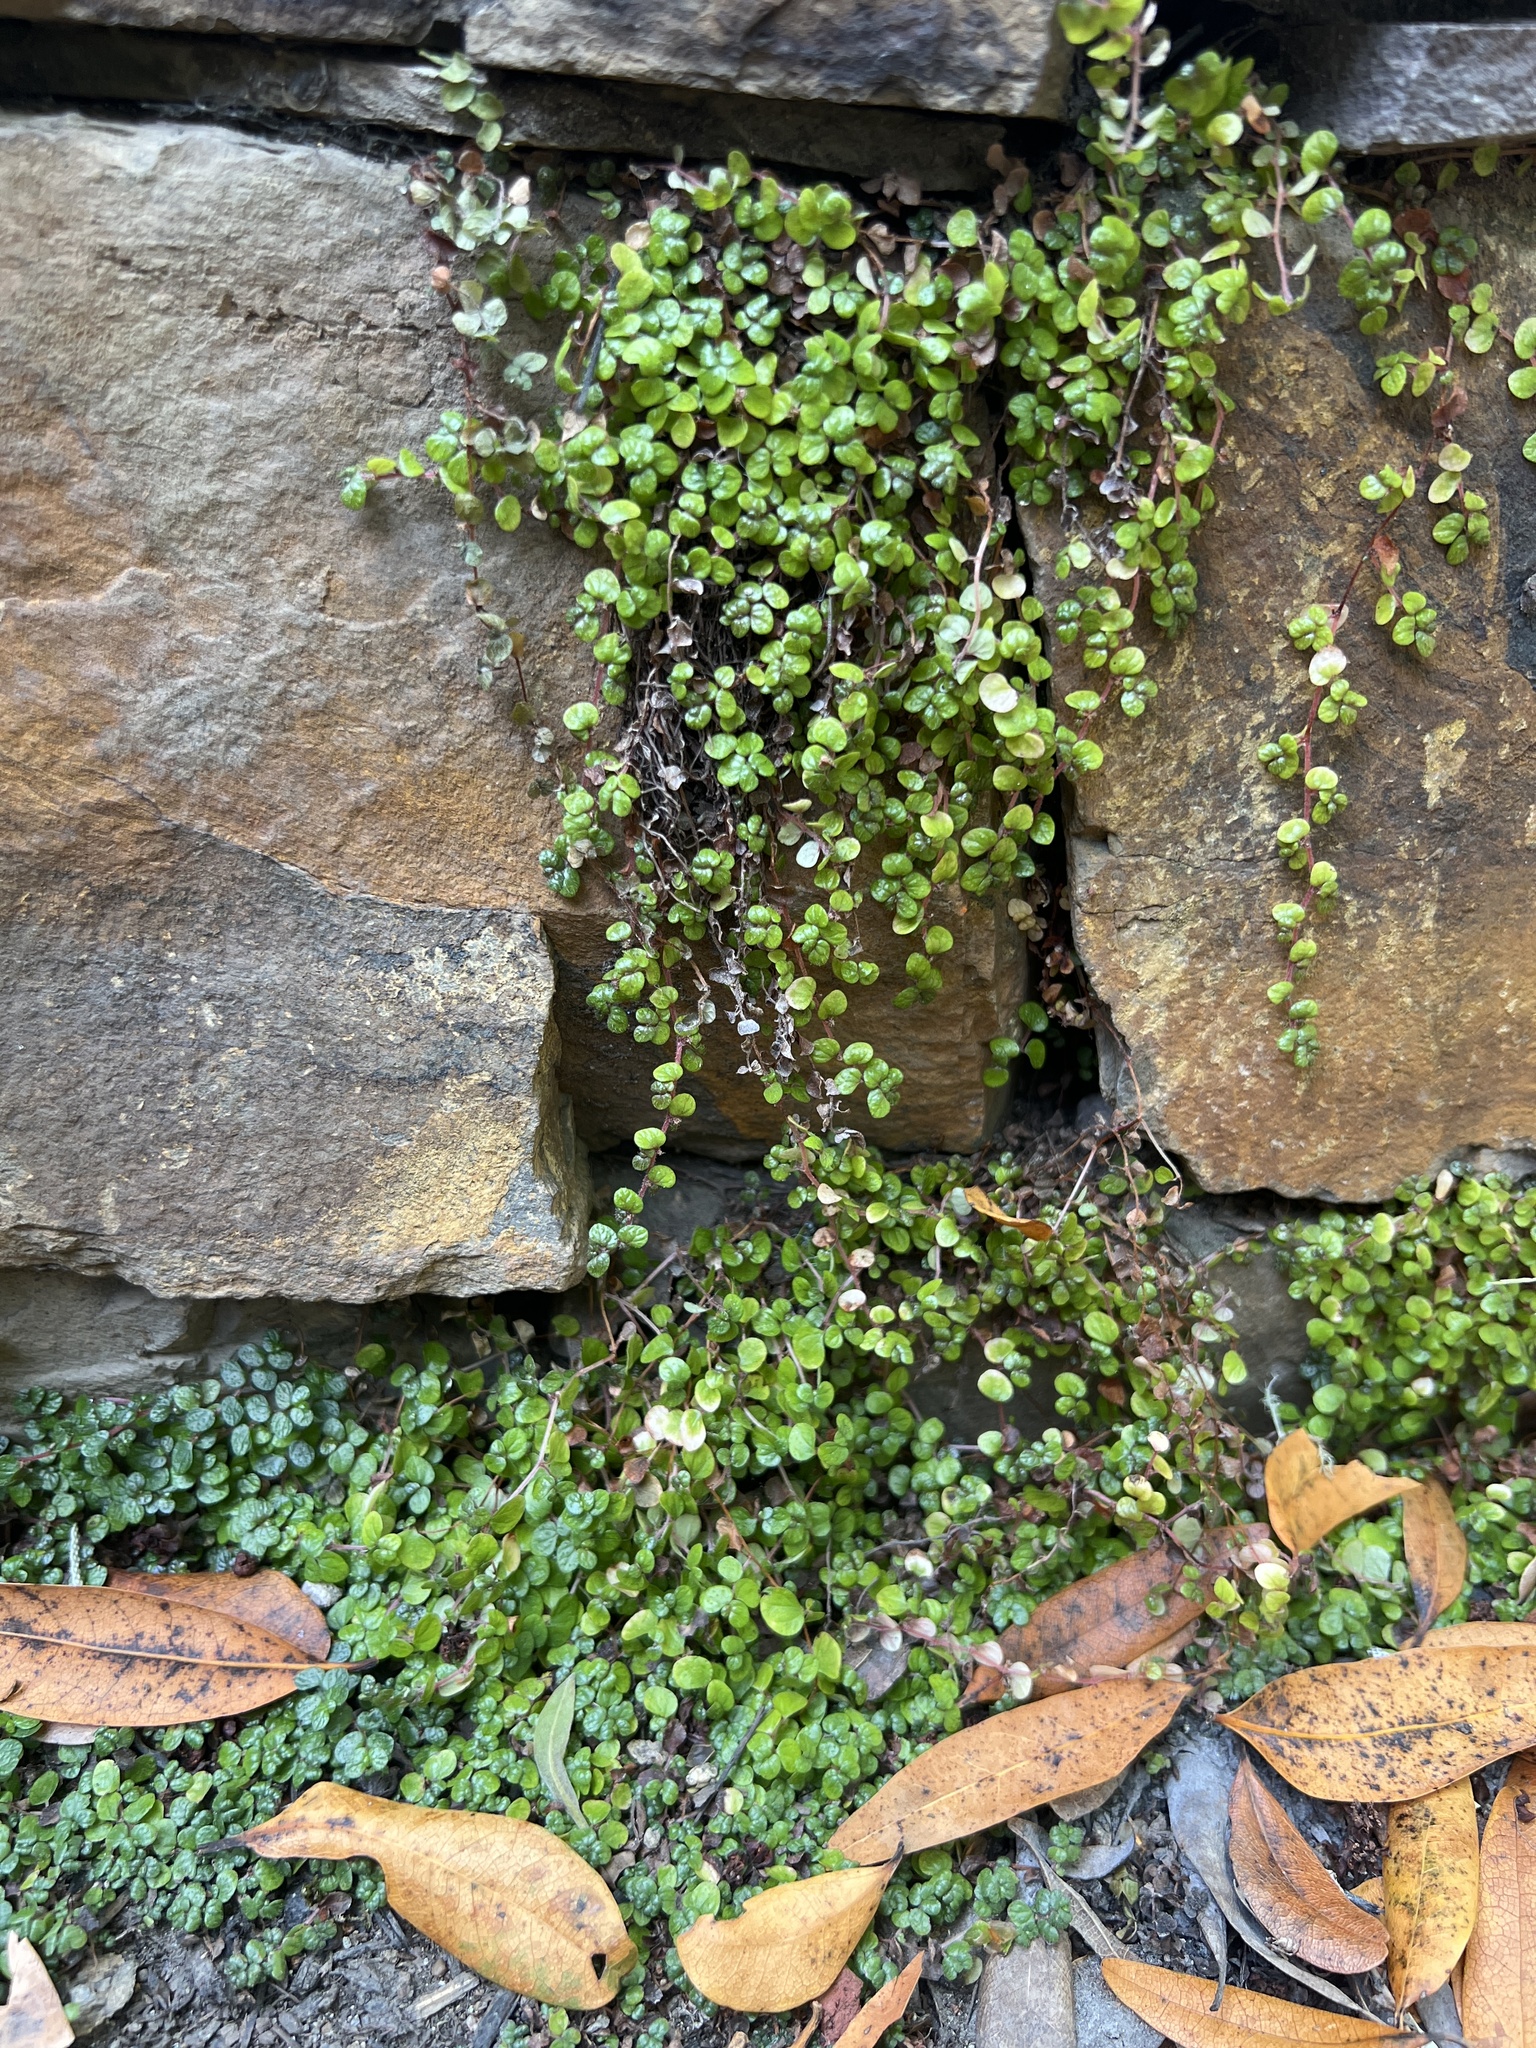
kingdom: Plantae
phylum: Tracheophyta
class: Magnoliopsida
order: Rosales
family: Urticaceae
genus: Soleirolia
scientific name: Soleirolia soleirolii
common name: Mind-your-own-business
